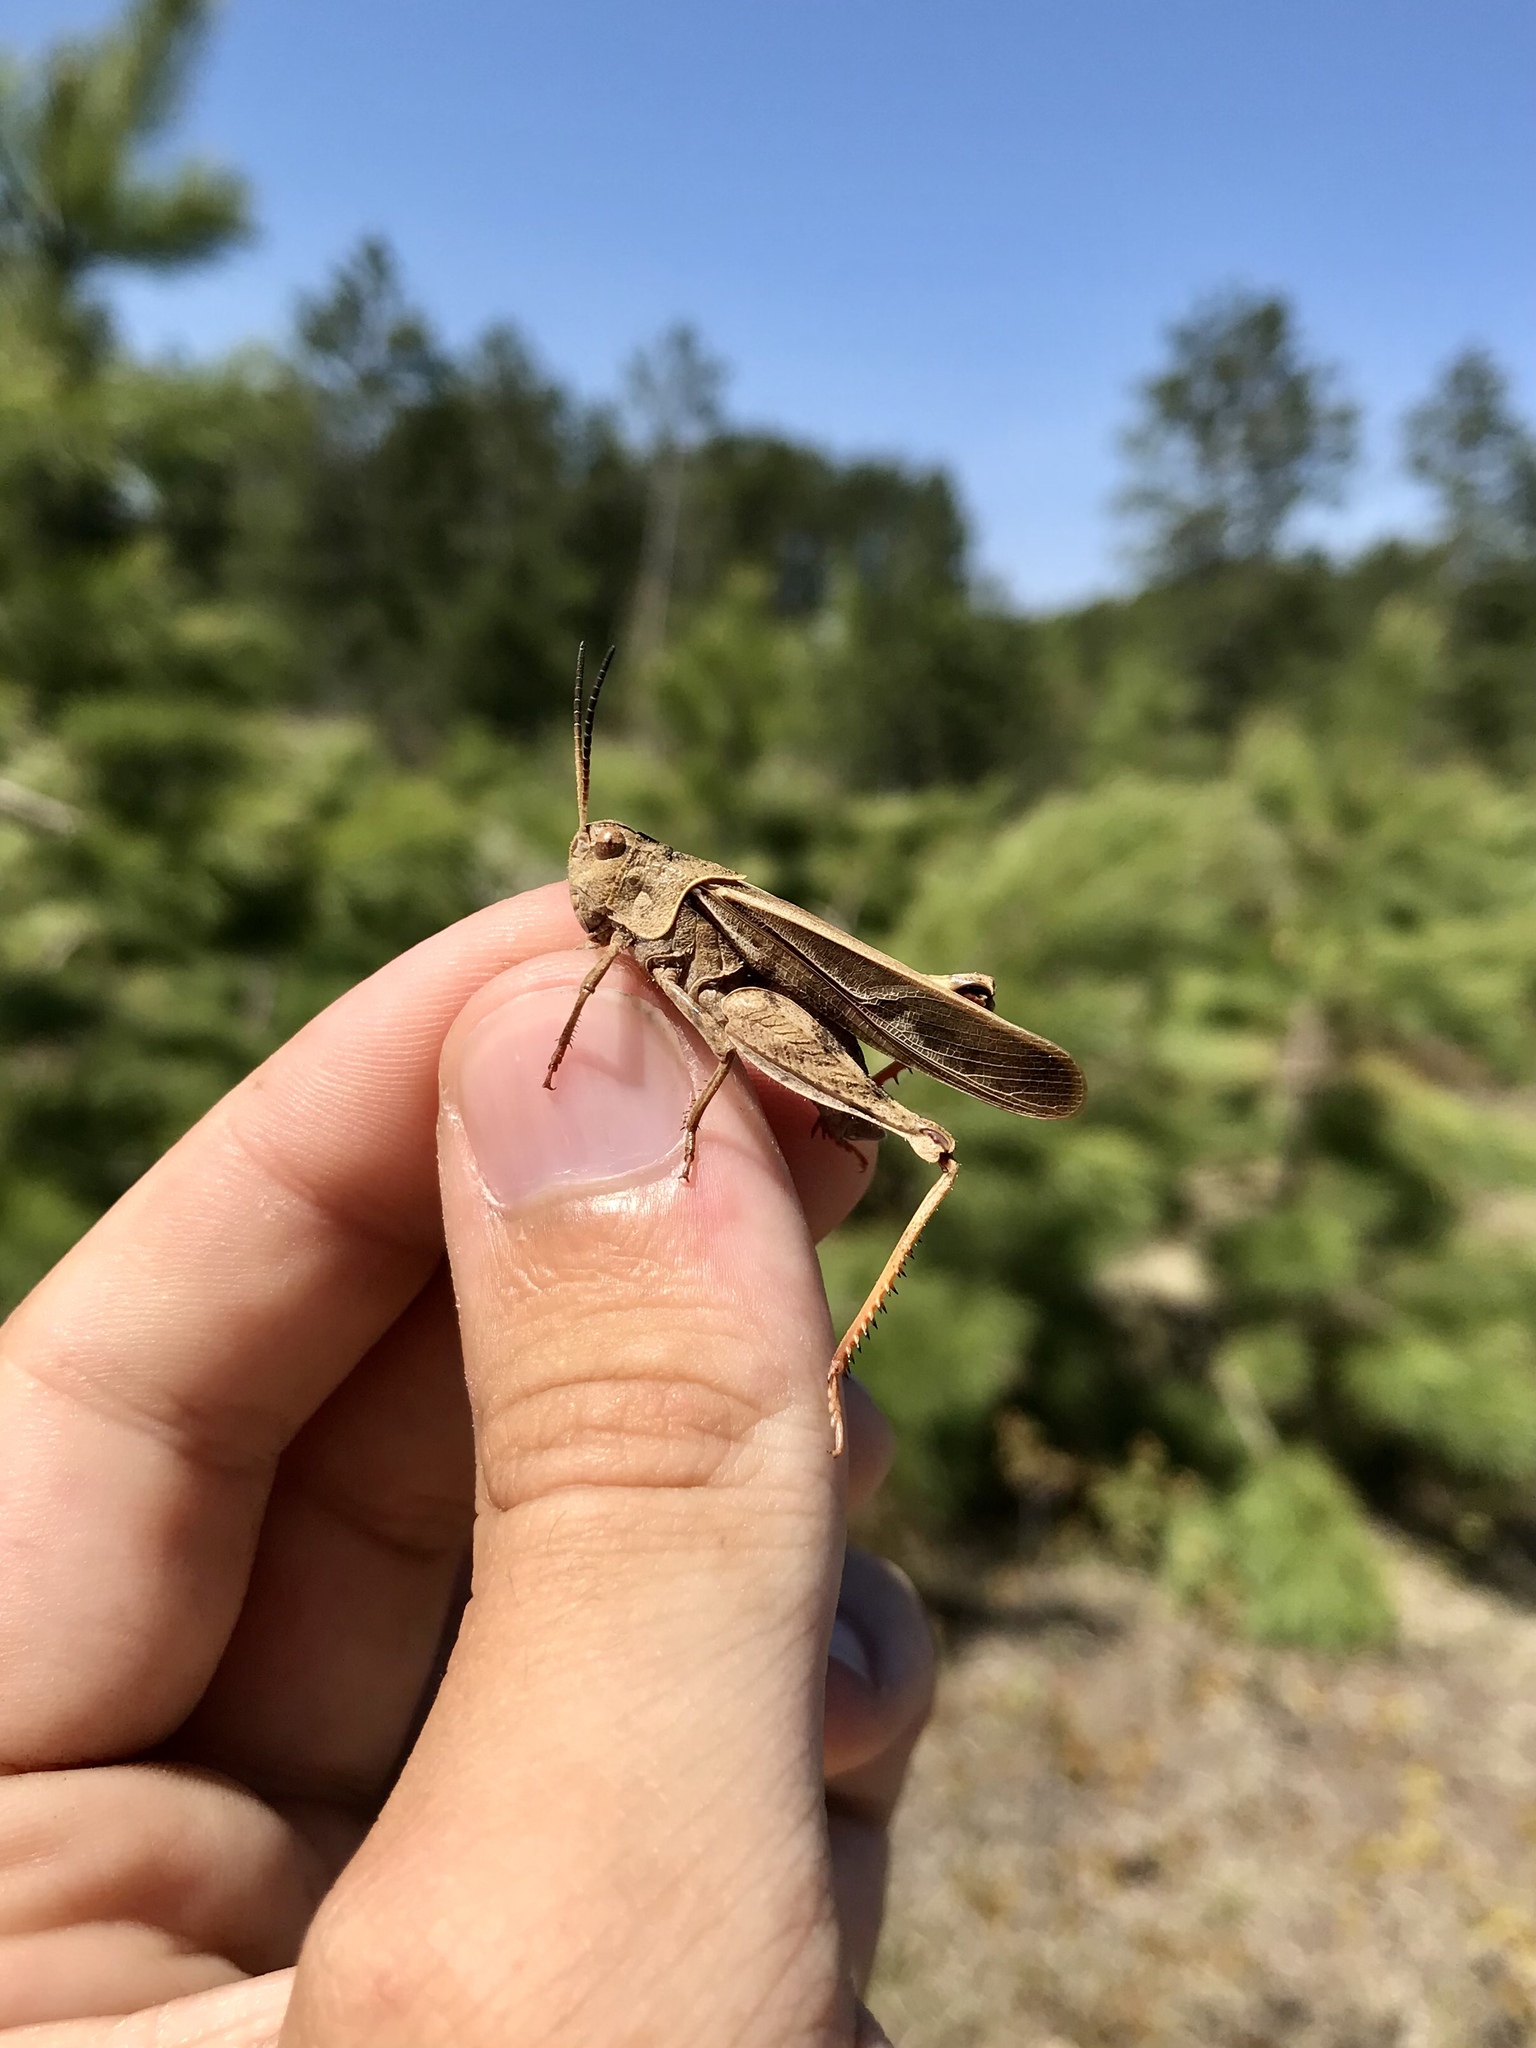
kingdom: Animalia
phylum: Arthropoda
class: Insecta
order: Orthoptera
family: Acrididae
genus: Pardalophora
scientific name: Pardalophora apiculata
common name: Coral-winged locust
